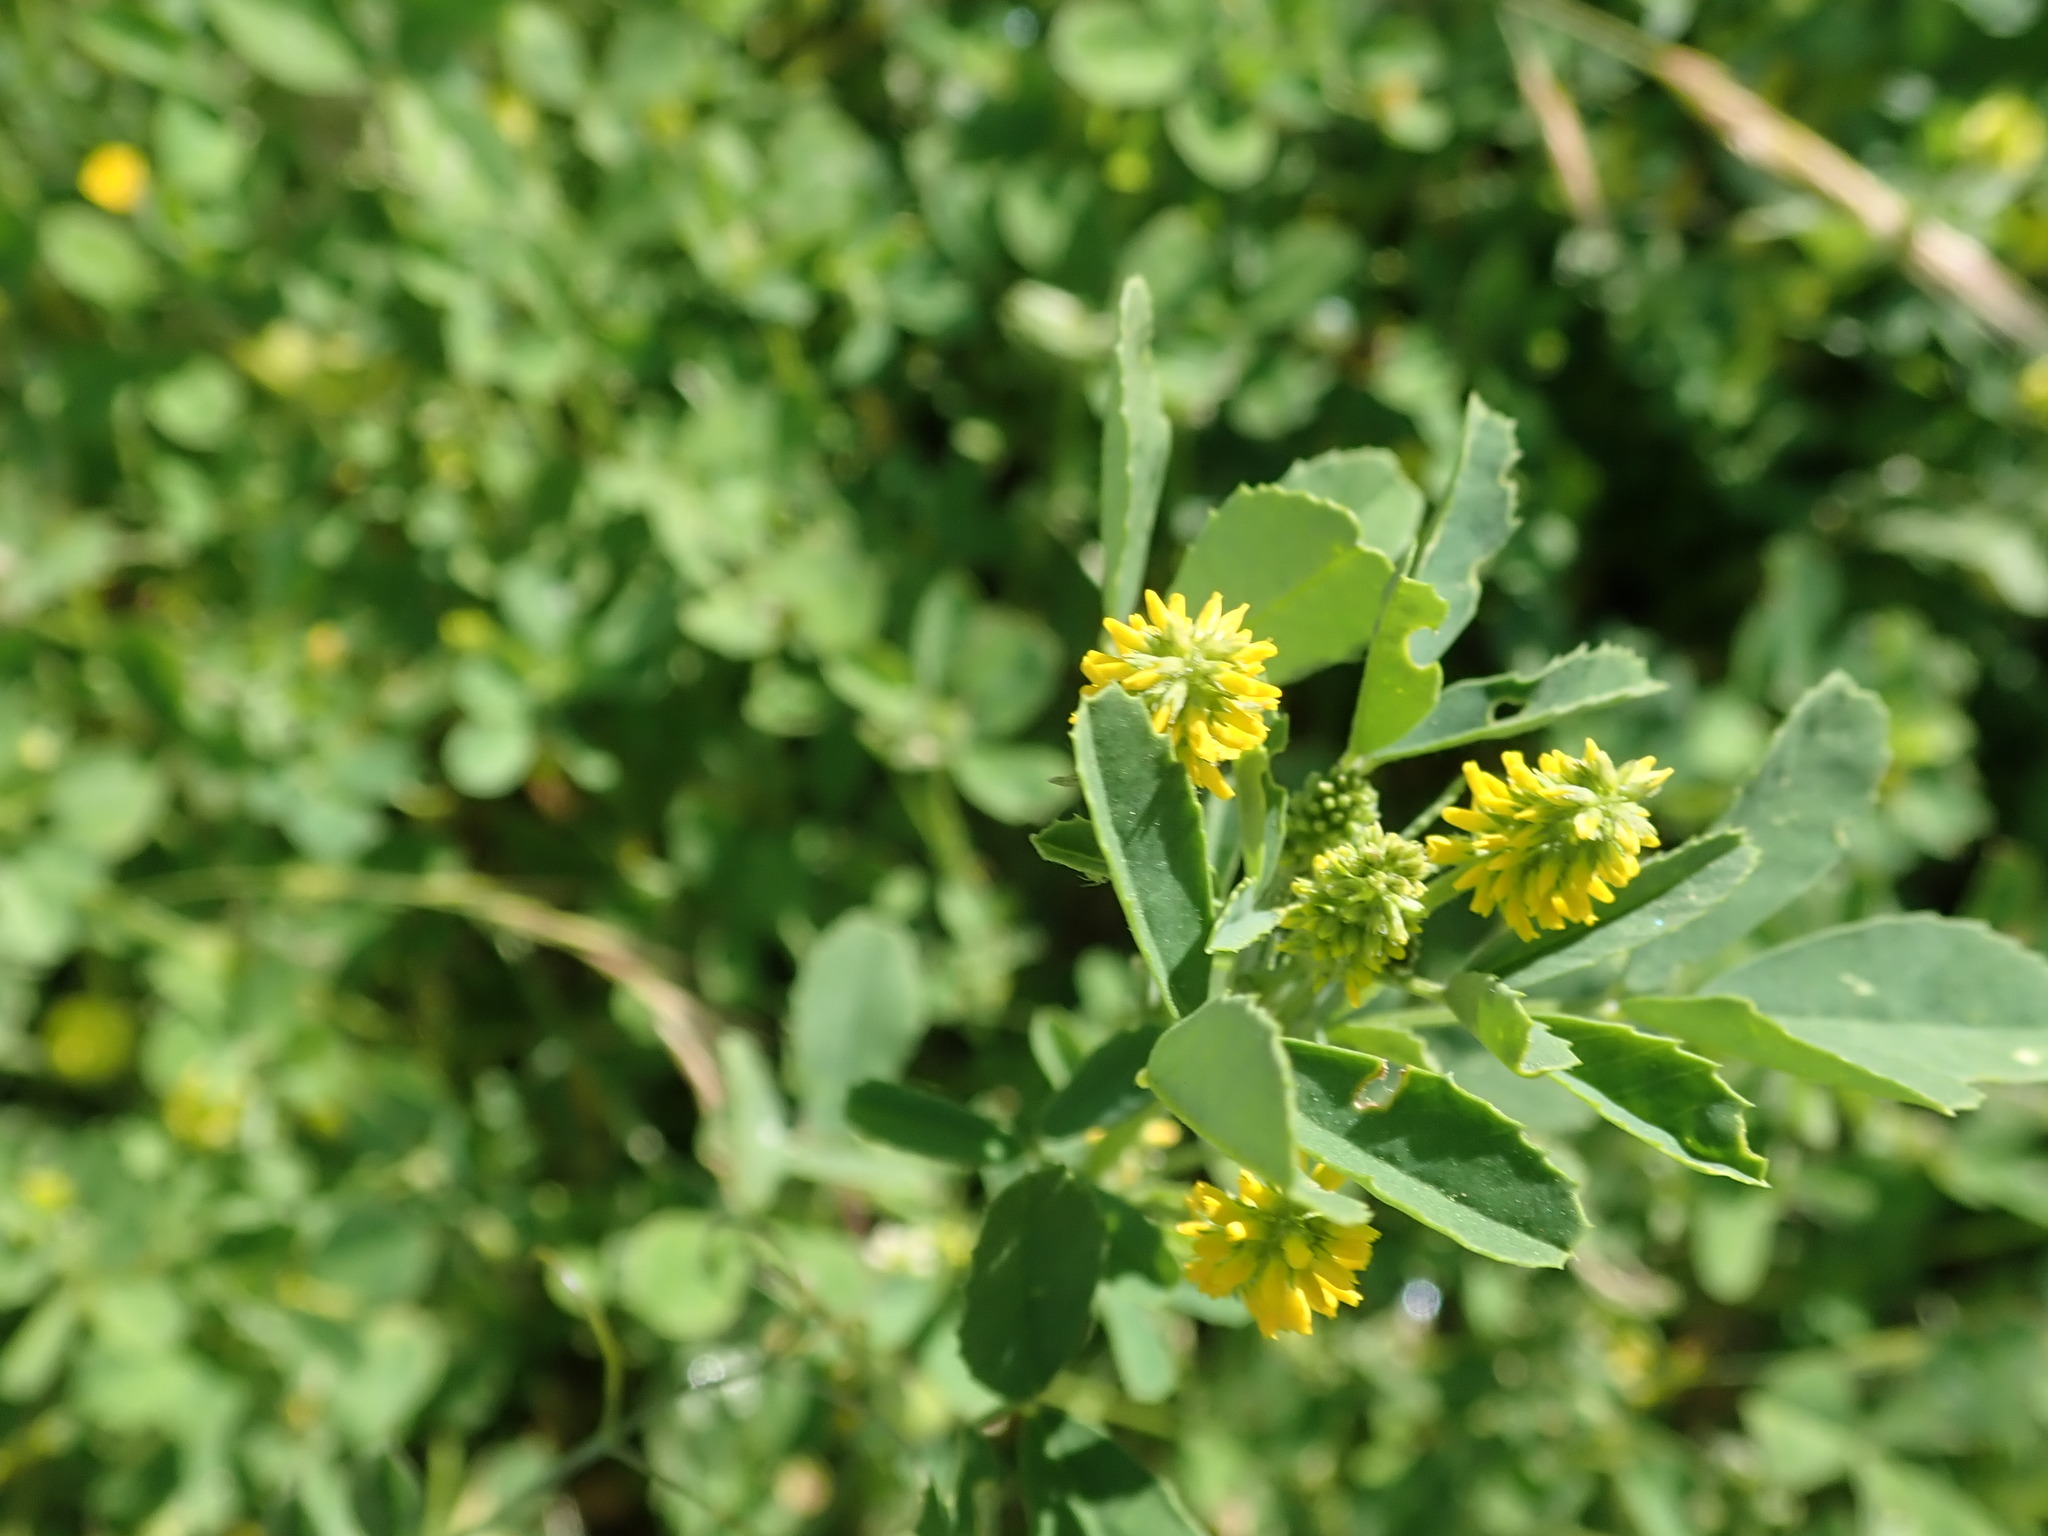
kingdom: Plantae
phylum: Tracheophyta
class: Magnoliopsida
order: Fabales
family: Fabaceae
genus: Melilotus
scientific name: Melilotus indicus
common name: Small melilot
